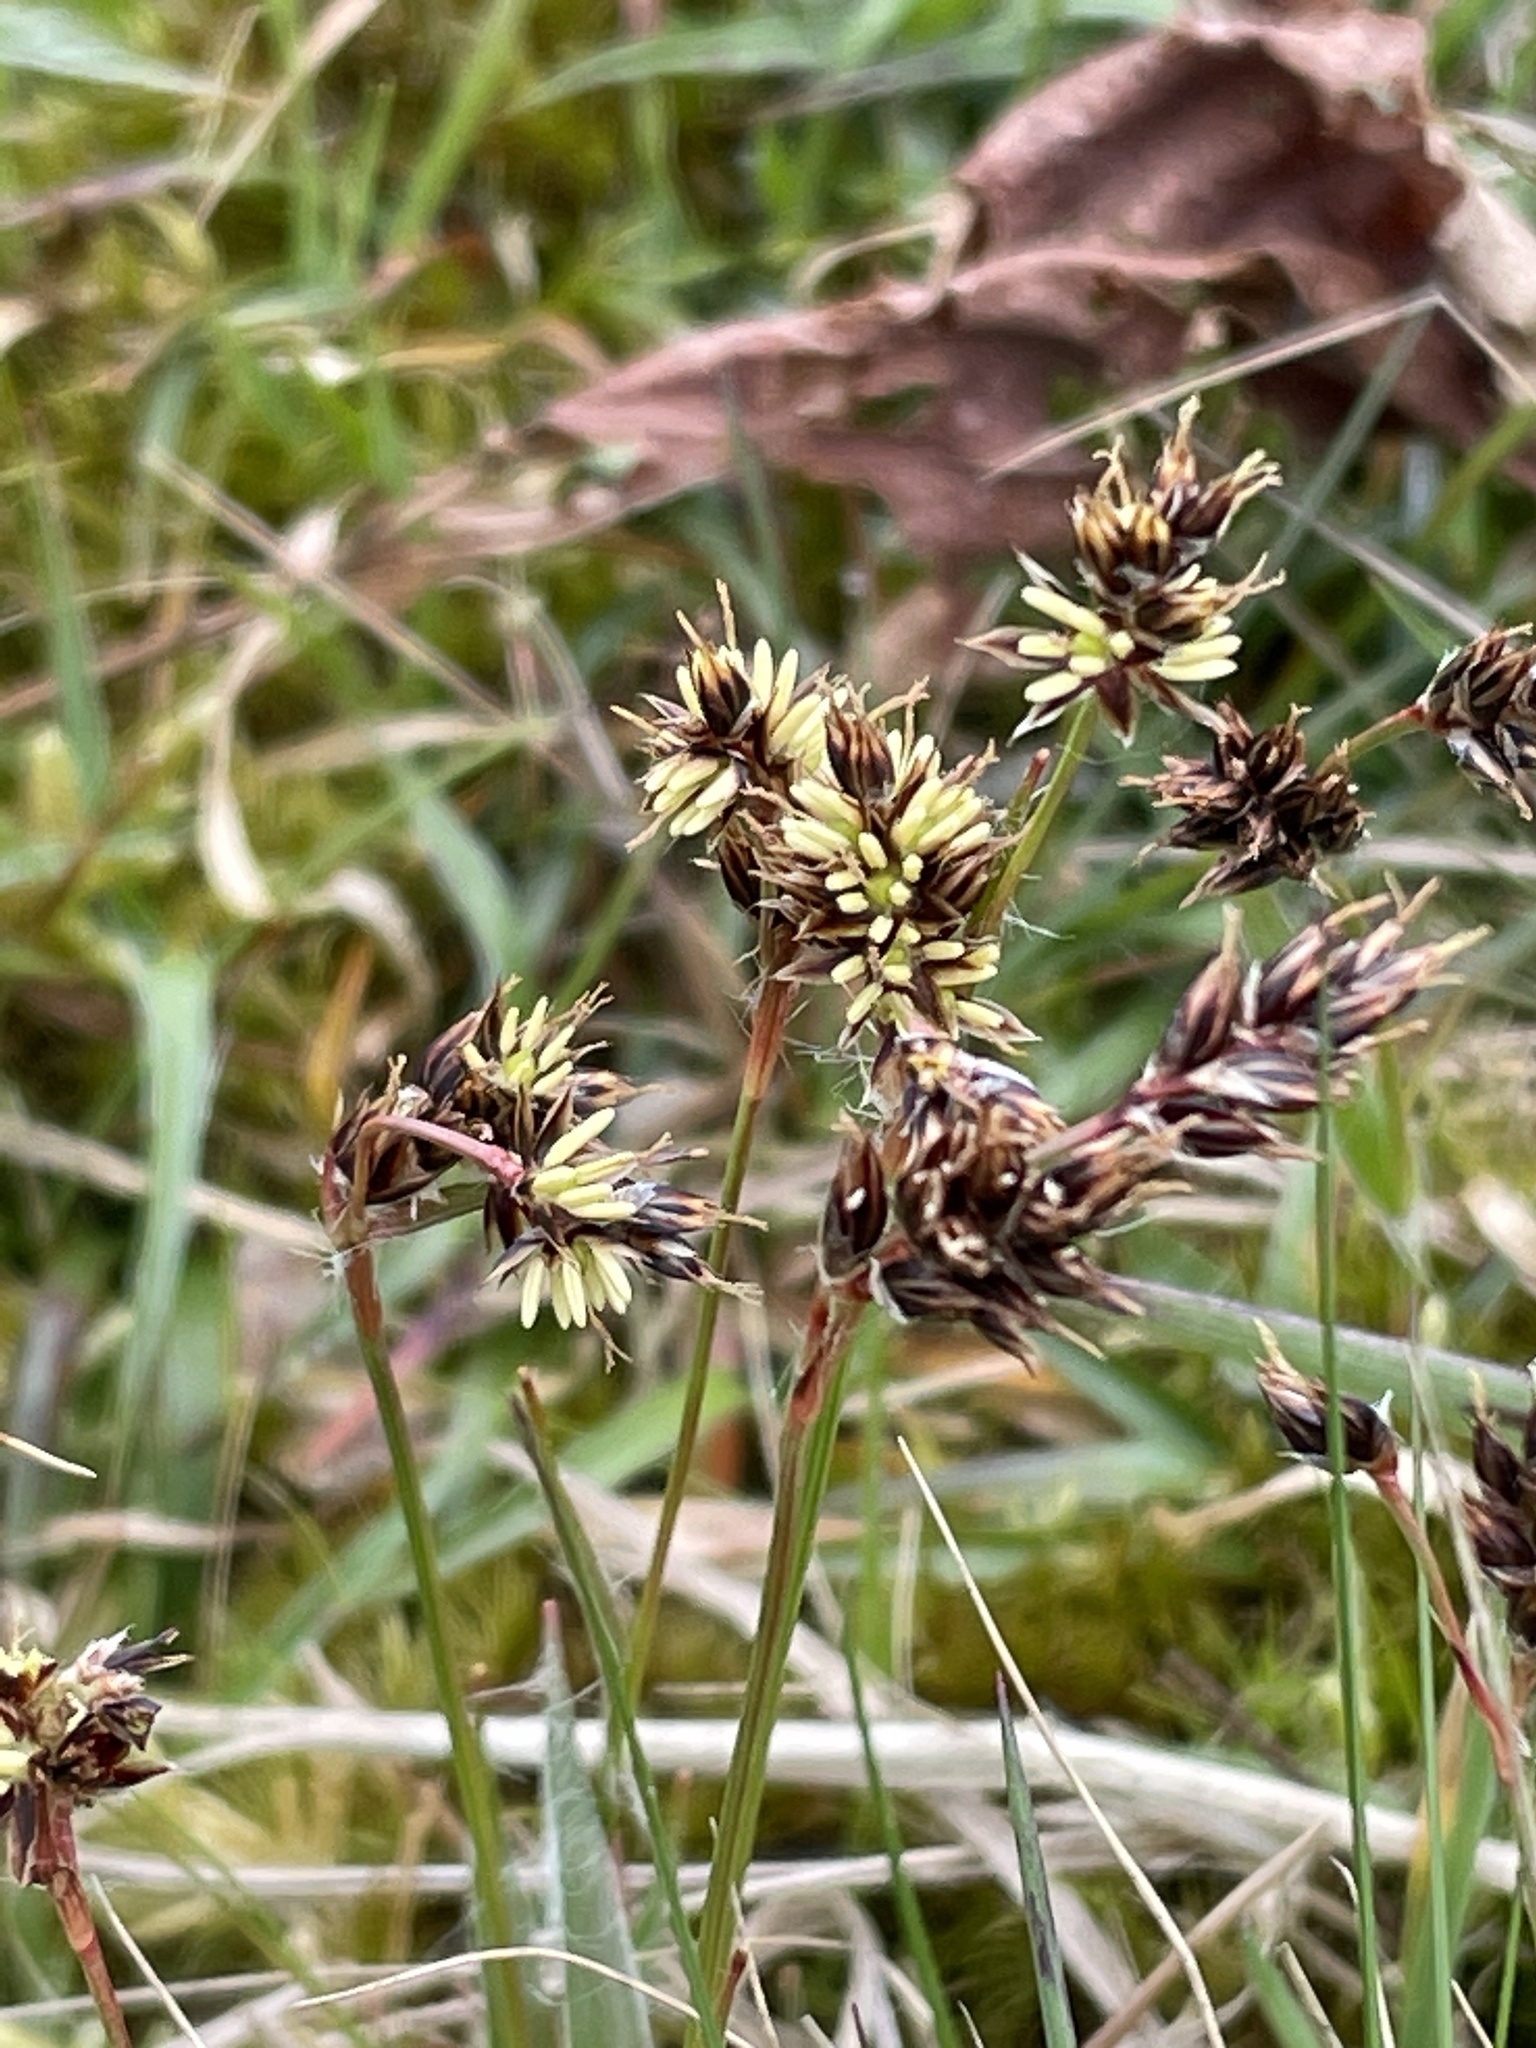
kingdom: Plantae
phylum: Tracheophyta
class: Liliopsida
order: Poales
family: Juncaceae
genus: Luzula
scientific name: Luzula campestris
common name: Field wood-rush
